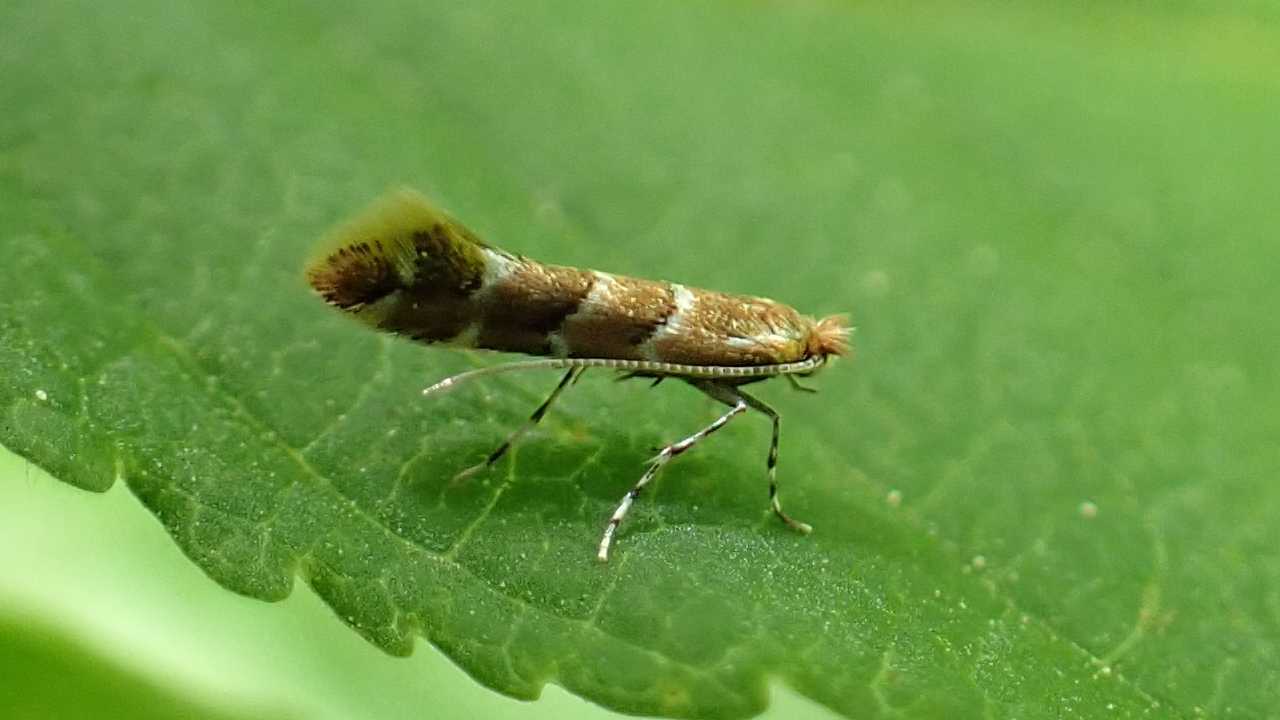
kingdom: Animalia
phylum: Arthropoda
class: Insecta
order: Lepidoptera
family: Gracillariidae
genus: Cameraria
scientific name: Cameraria ohridella
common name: Horse-chestnut leaf-miner
